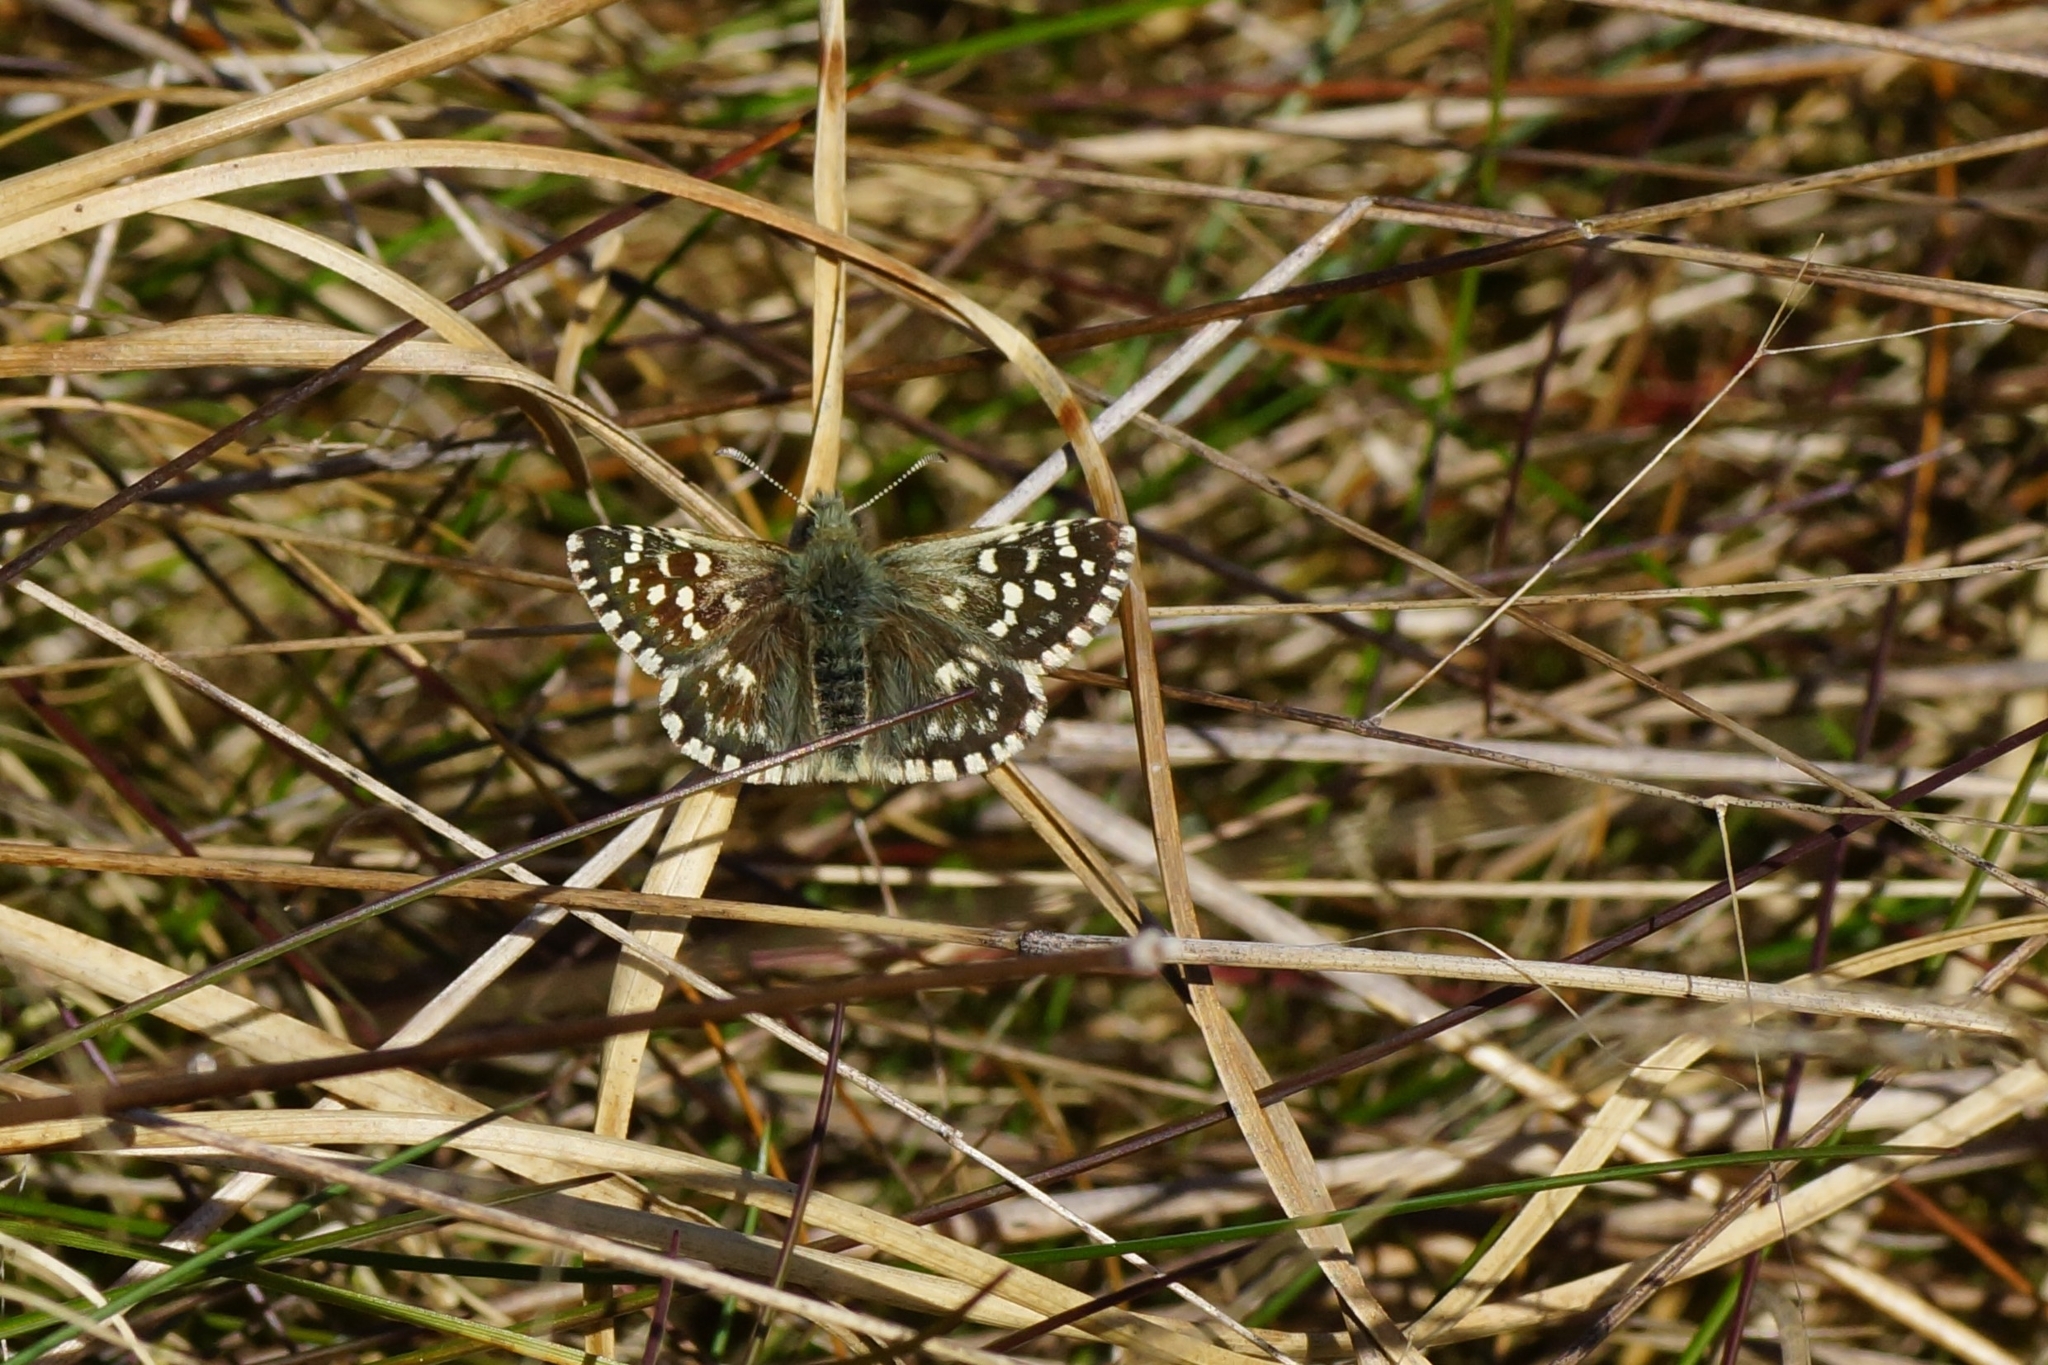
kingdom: Animalia
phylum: Arthropoda
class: Insecta
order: Lepidoptera
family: Hesperiidae
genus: Pyrgus
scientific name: Pyrgus malvae
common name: Grizzled skipper
